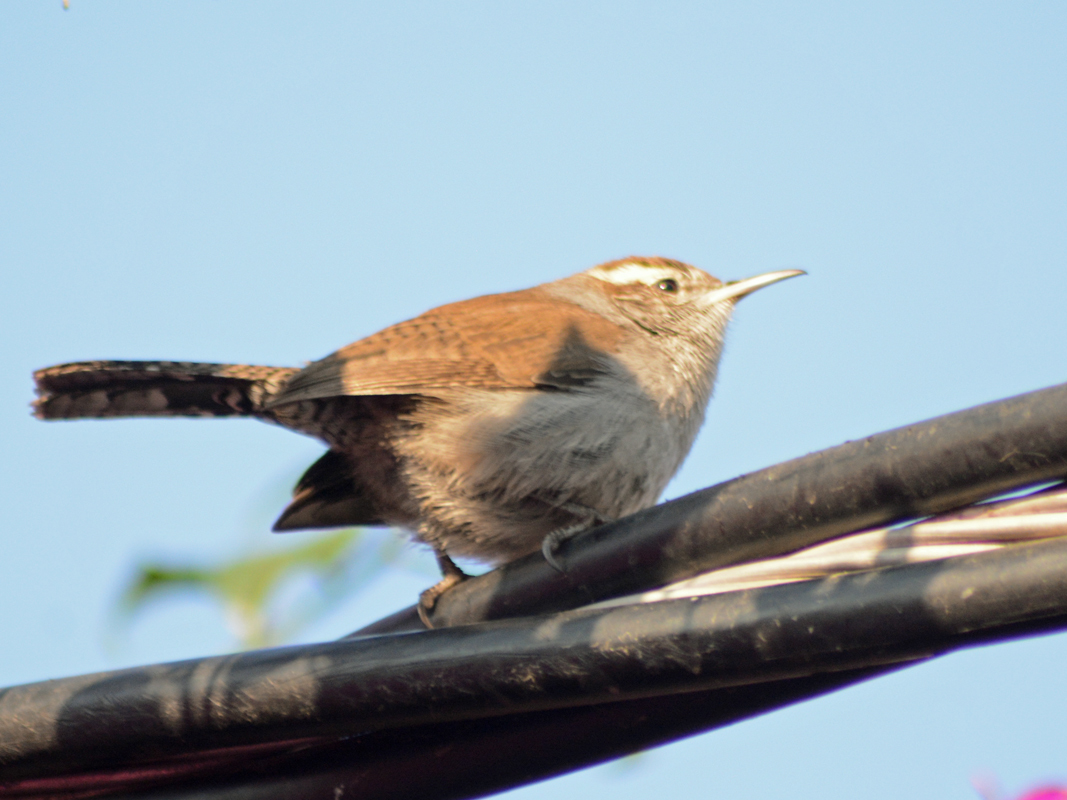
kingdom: Animalia
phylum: Chordata
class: Aves
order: Passeriformes
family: Troglodytidae
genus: Thryomanes
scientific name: Thryomanes bewickii
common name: Bewick's wren
